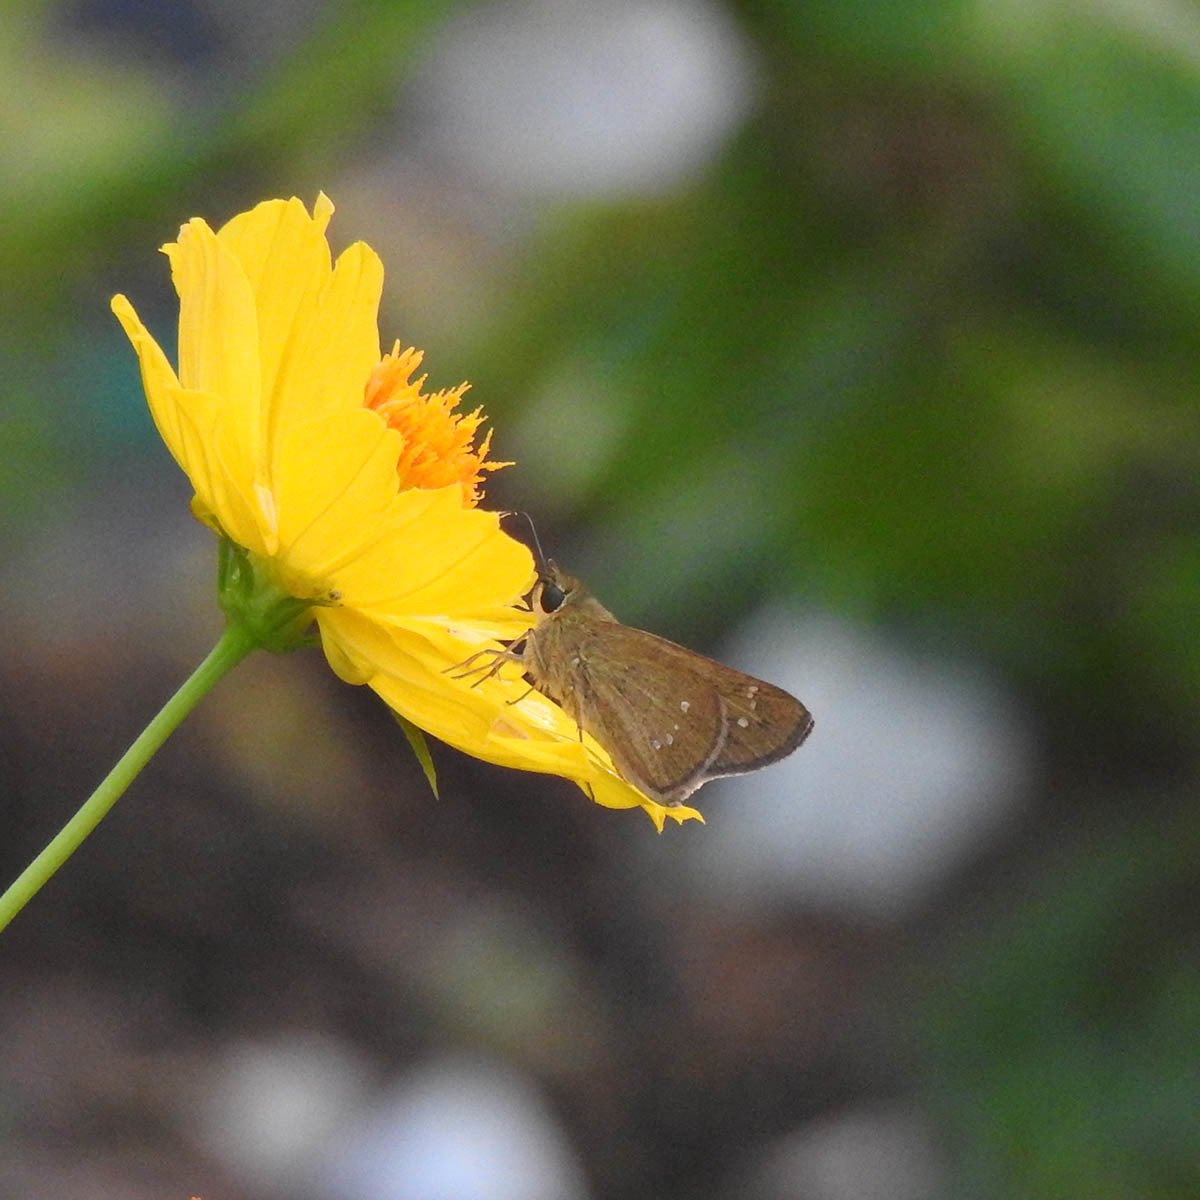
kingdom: Animalia
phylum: Arthropoda
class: Insecta
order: Lepidoptera
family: Hesperiidae
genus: Borbo
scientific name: Borbo cinnara
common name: Formosan swift
